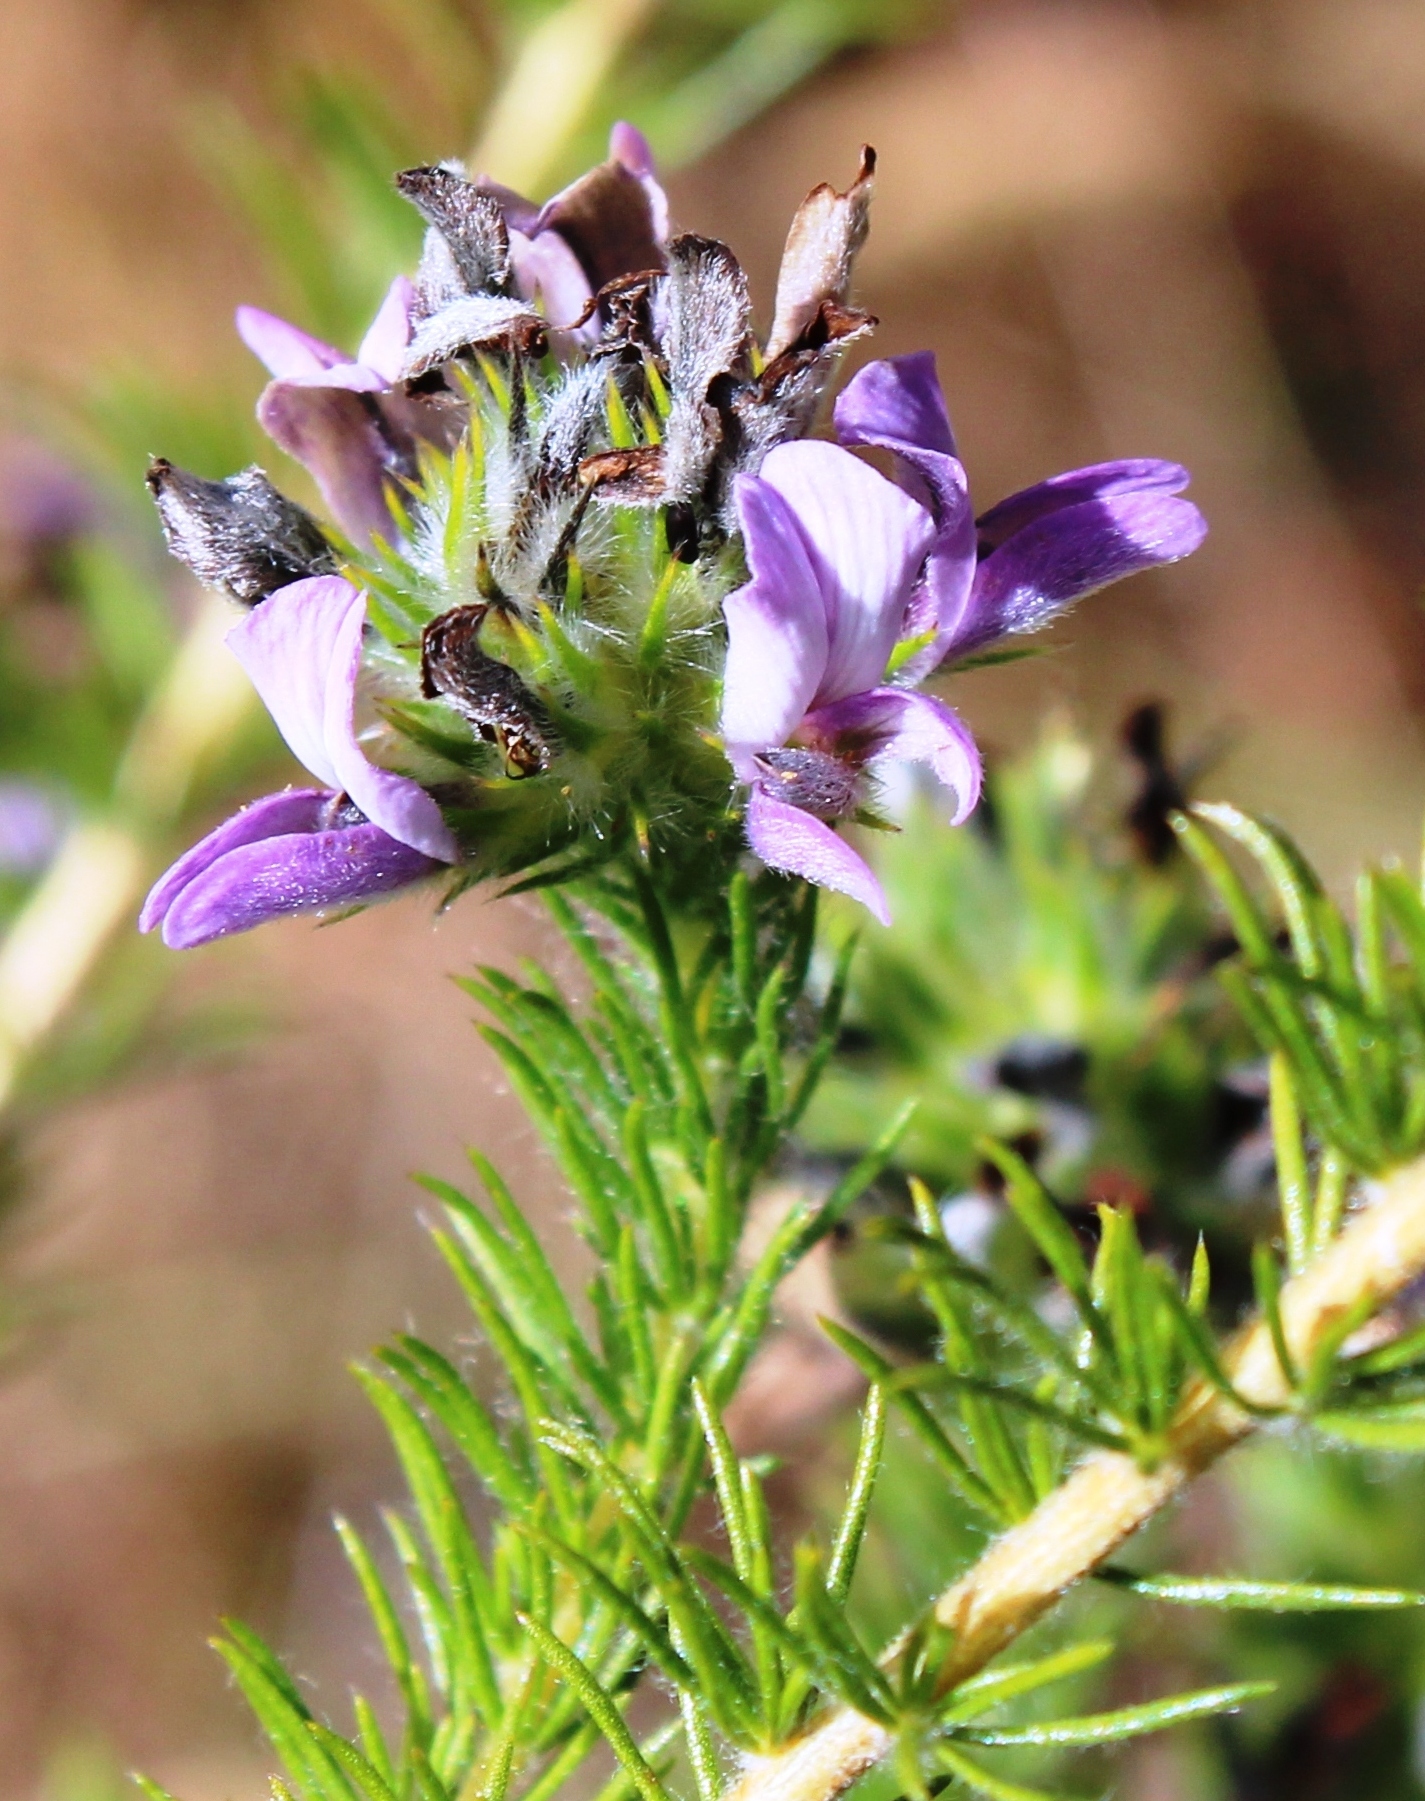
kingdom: Plantae
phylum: Tracheophyta
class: Magnoliopsida
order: Fabales
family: Fabaceae
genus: Aspalathus
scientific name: Aspalathus cephalotes
